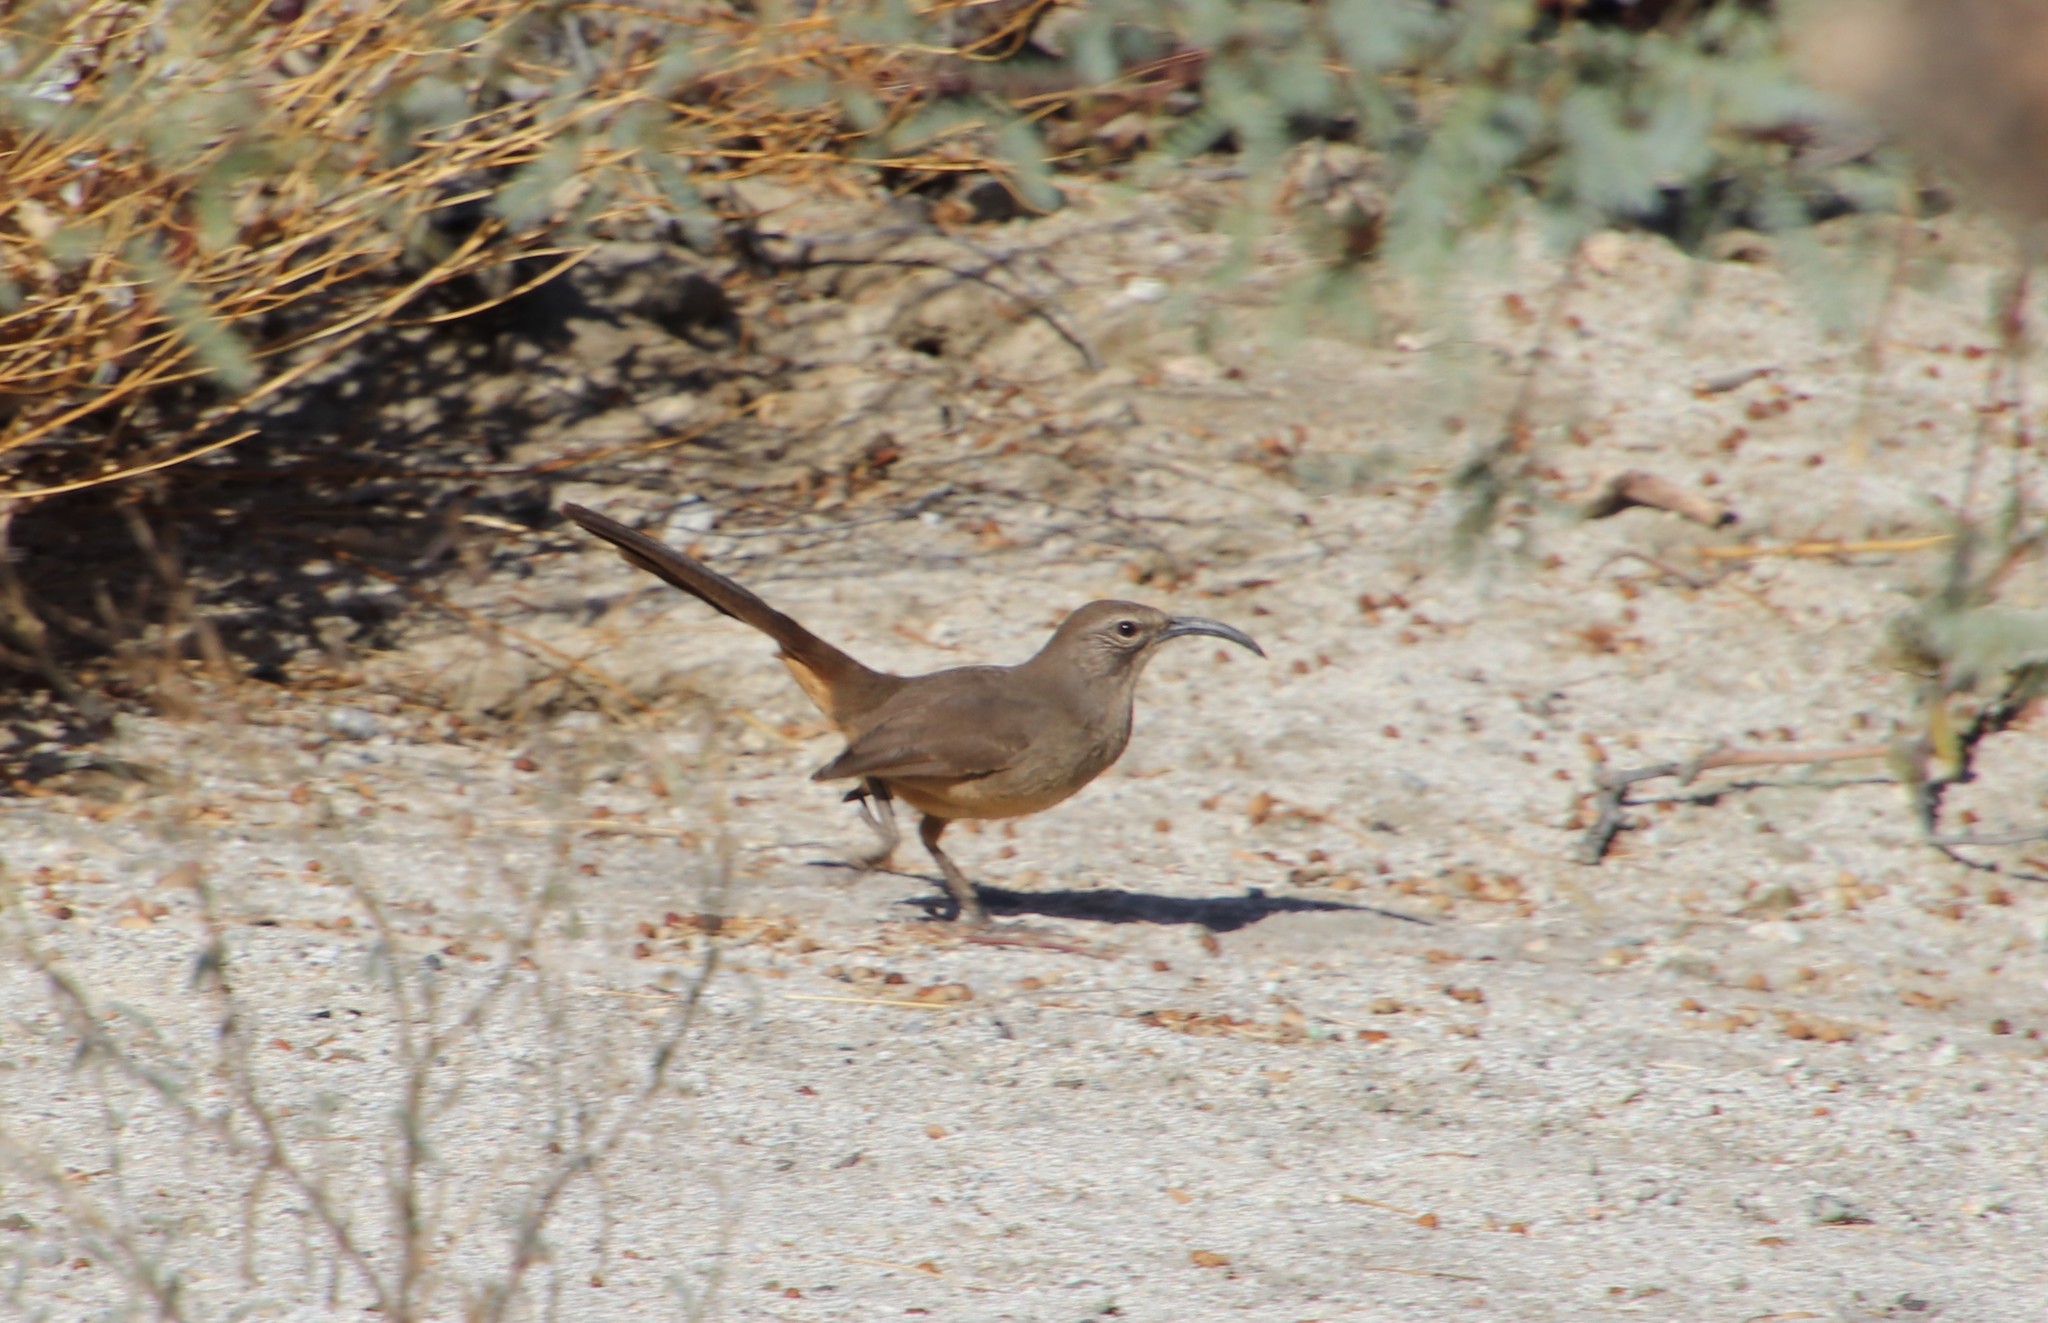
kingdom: Animalia
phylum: Chordata
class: Aves
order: Passeriformes
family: Mimidae
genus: Toxostoma
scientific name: Toxostoma redivivum
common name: California thrasher
